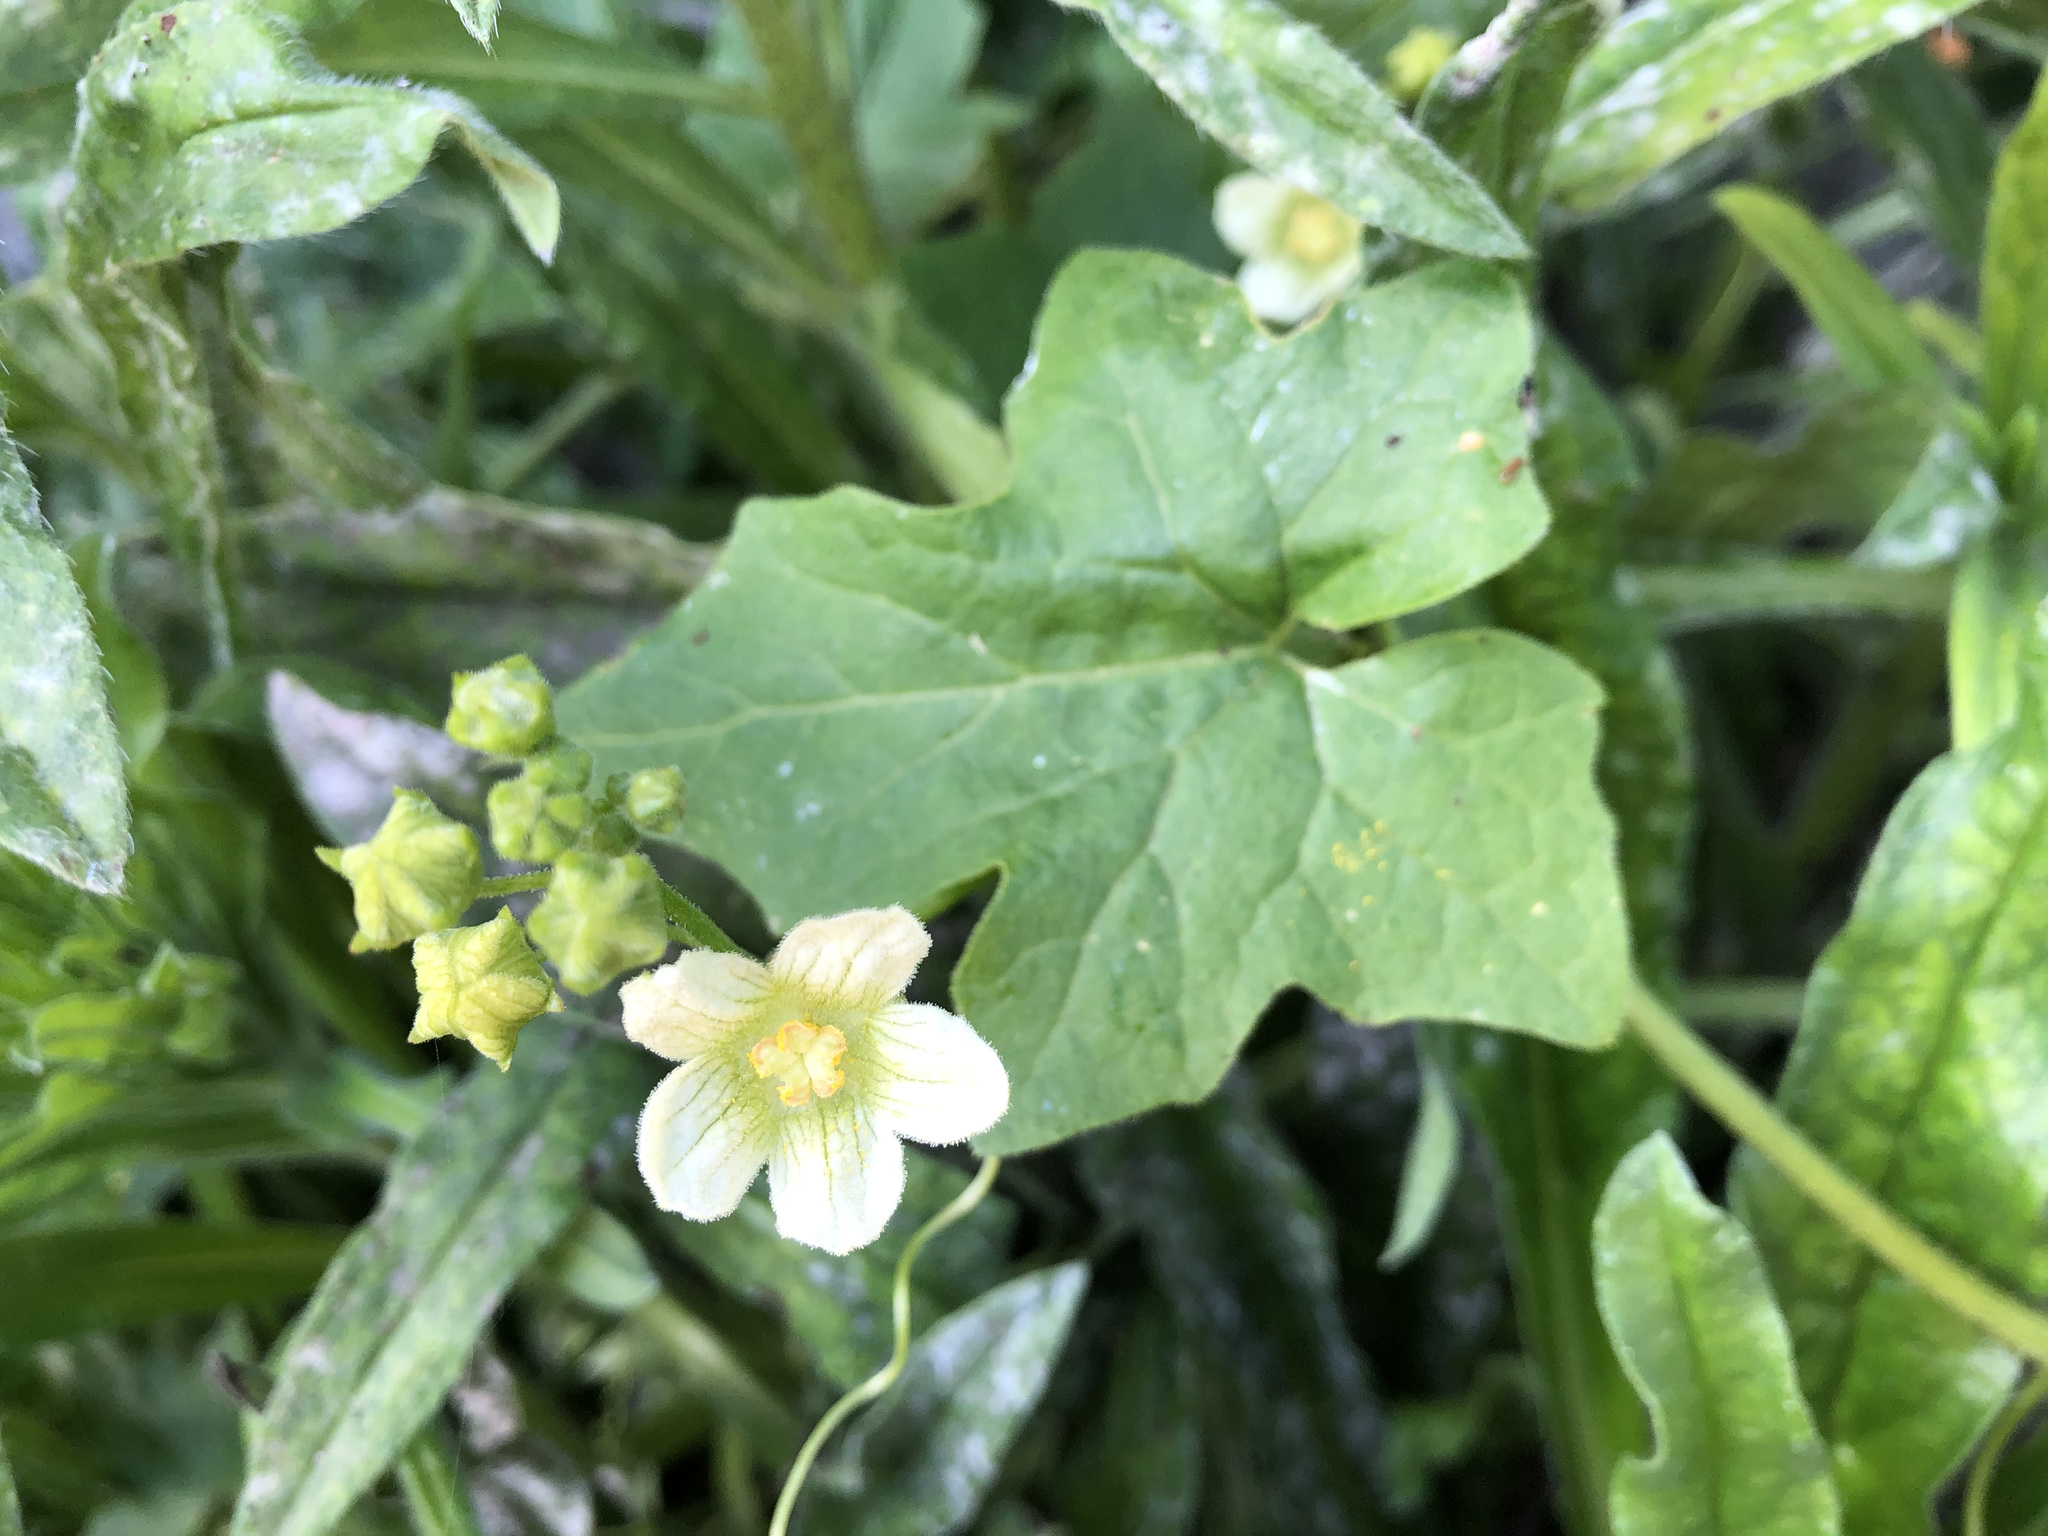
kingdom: Plantae
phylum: Tracheophyta
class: Magnoliopsida
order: Cucurbitales
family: Cucurbitaceae
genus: Bryonia
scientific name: Bryonia cretica
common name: Cretan bryony
